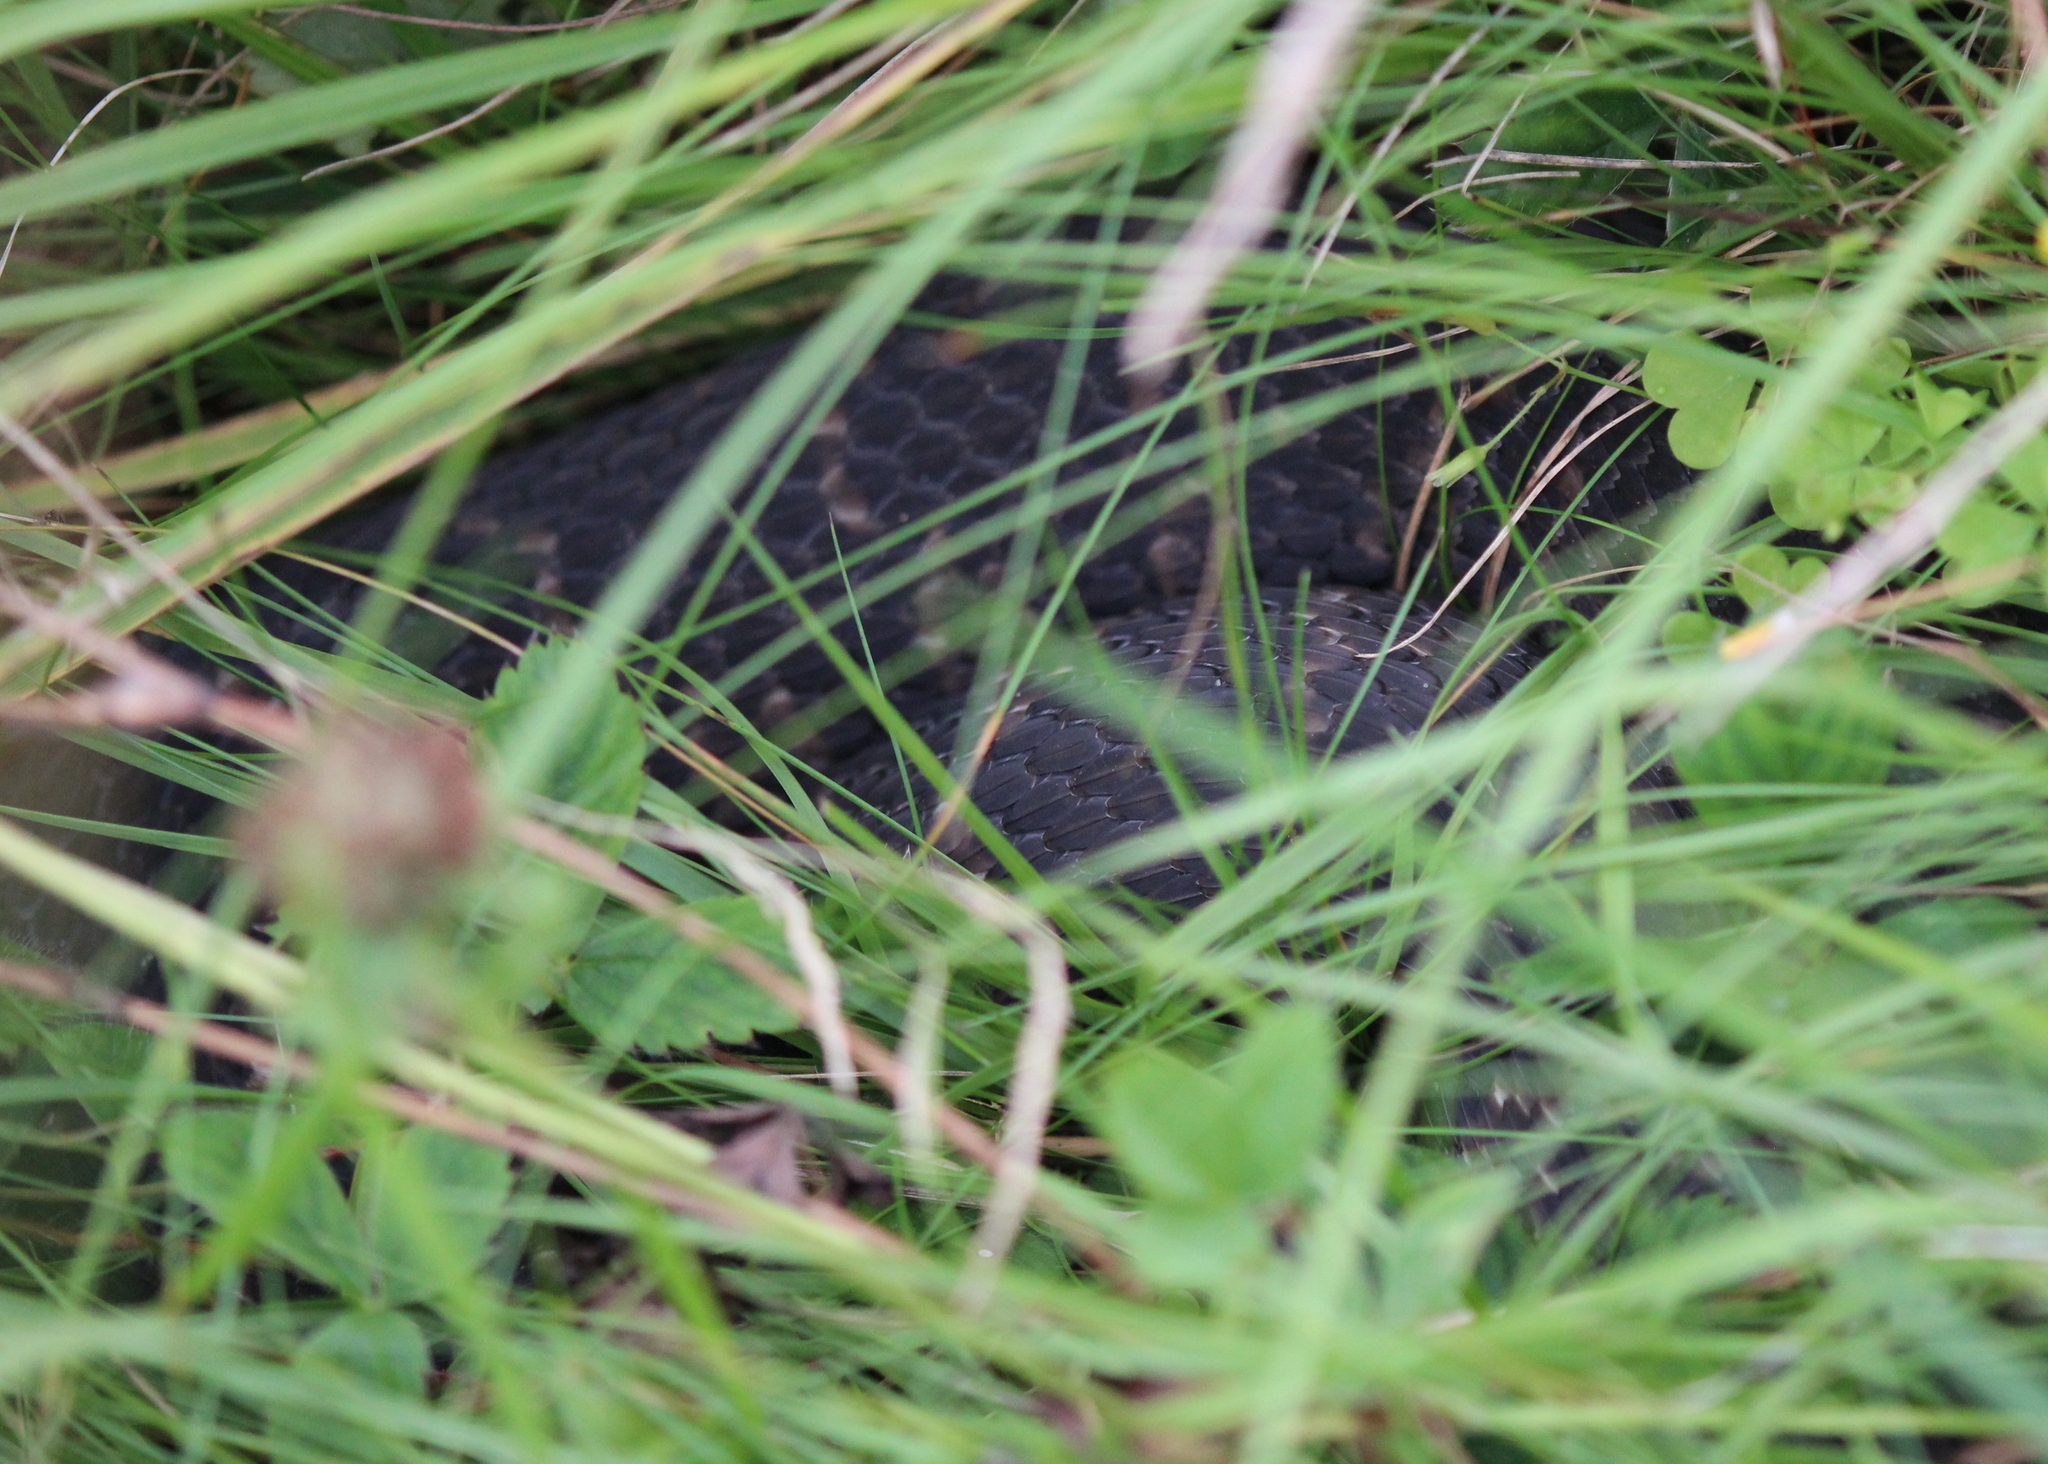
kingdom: Animalia
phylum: Chordata
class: Squamata
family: Colubridae
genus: Nerodia
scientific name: Nerodia sipedon
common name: Northern water snake
